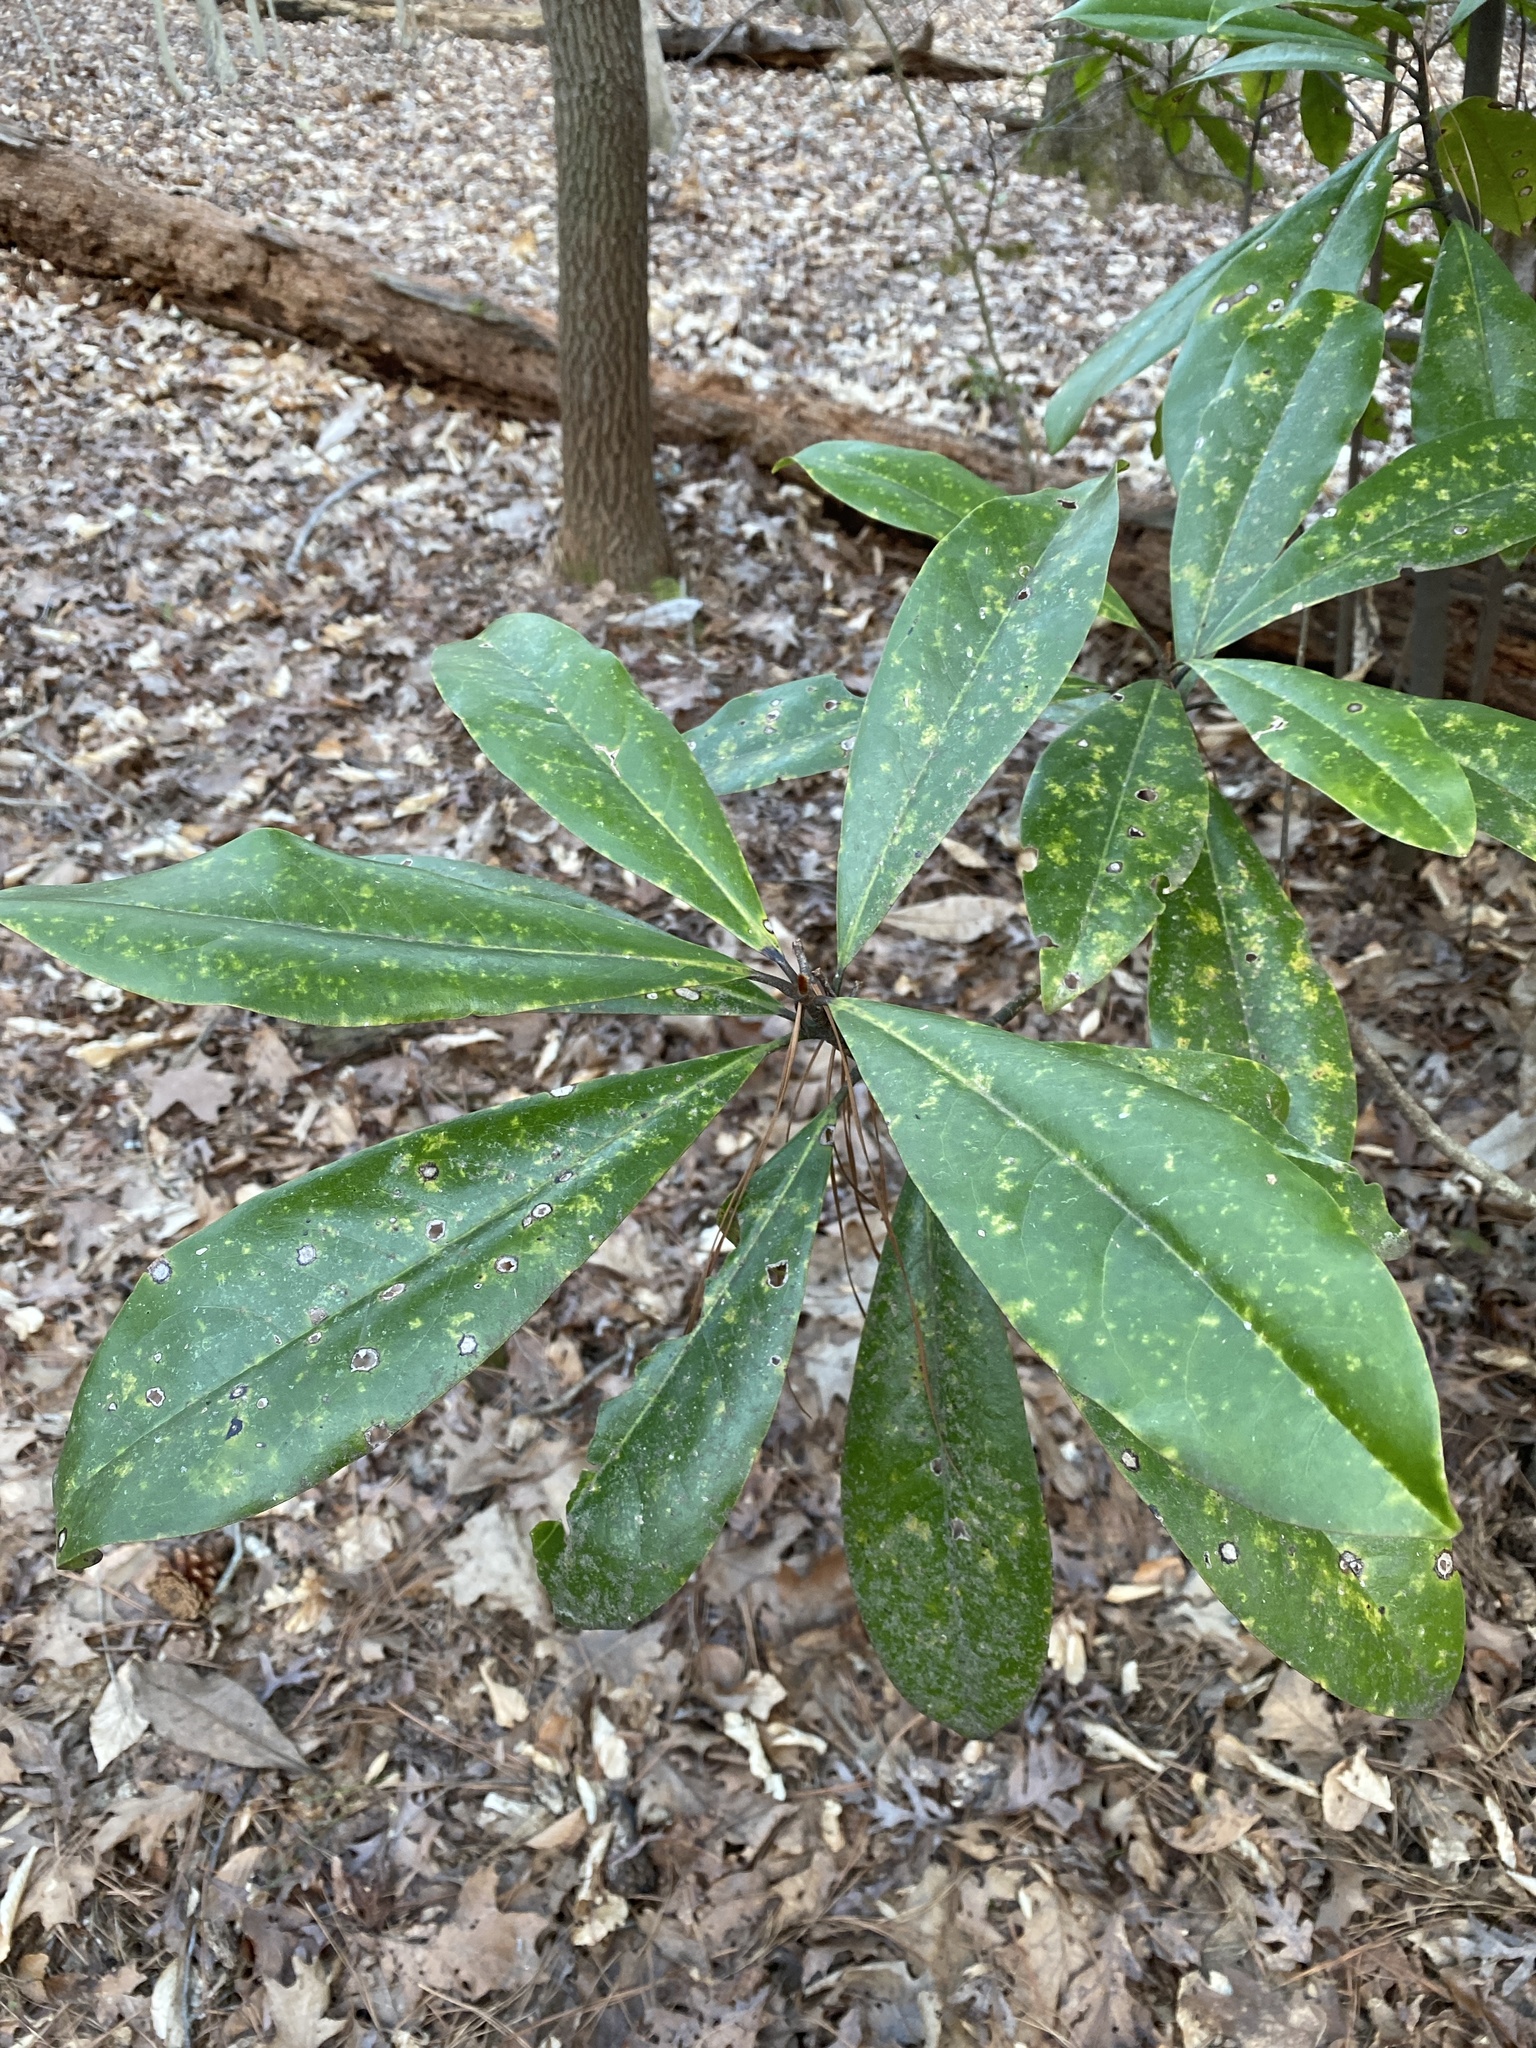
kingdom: Plantae
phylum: Tracheophyta
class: Magnoliopsida
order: Magnoliales
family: Magnoliaceae
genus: Magnolia
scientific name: Magnolia grandiflora
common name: Southern magnolia
